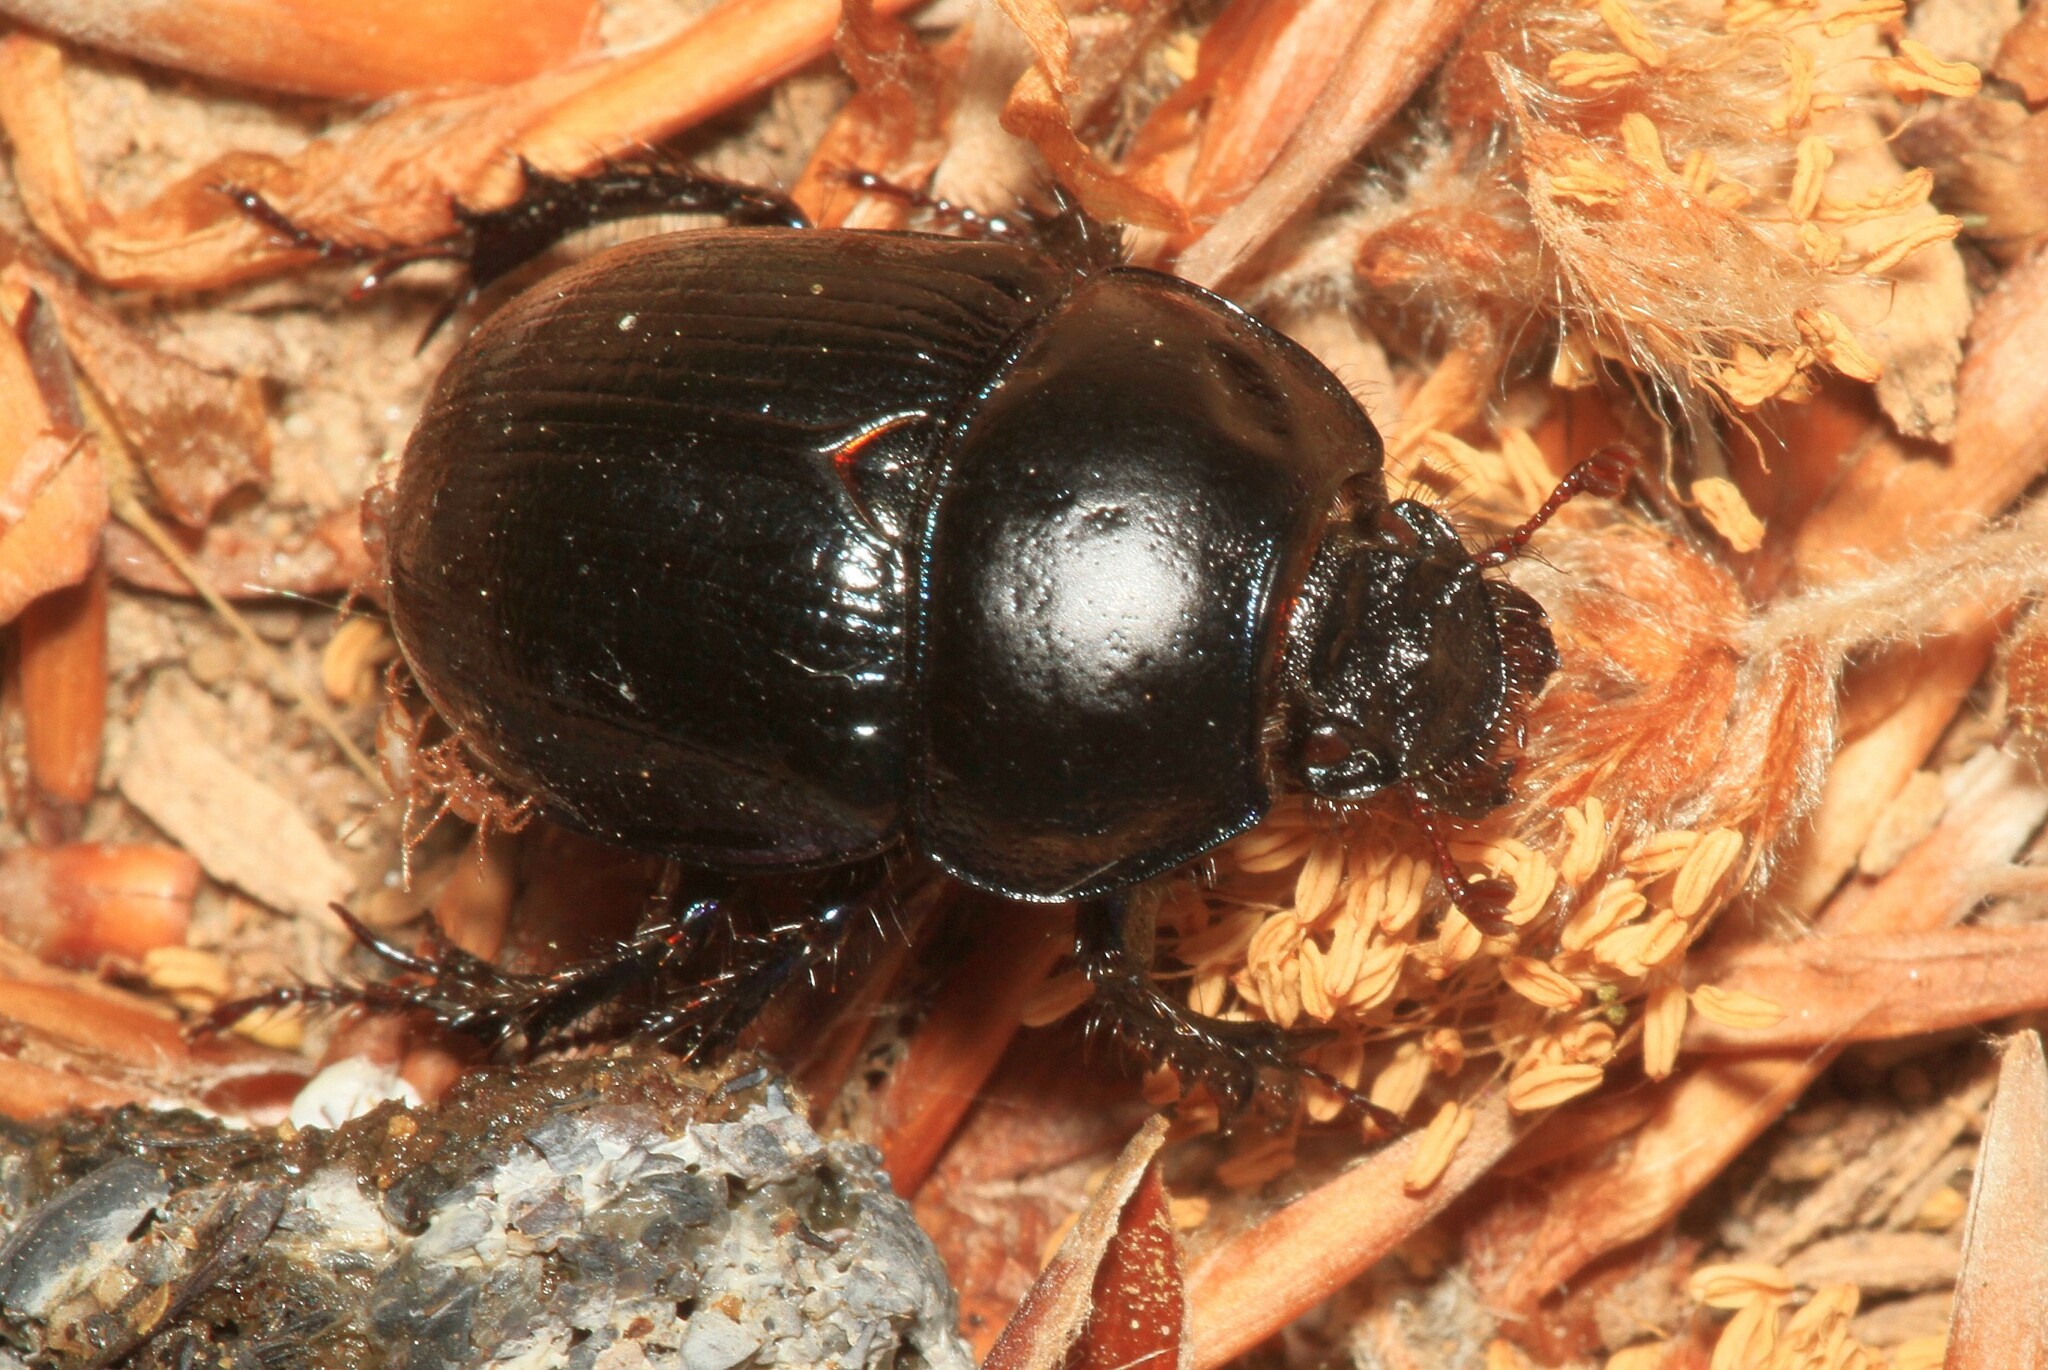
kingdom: Animalia
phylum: Arthropoda
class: Insecta
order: Coleoptera
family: Geotrupidae
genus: Anoplotrupes
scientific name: Anoplotrupes stercorosus
